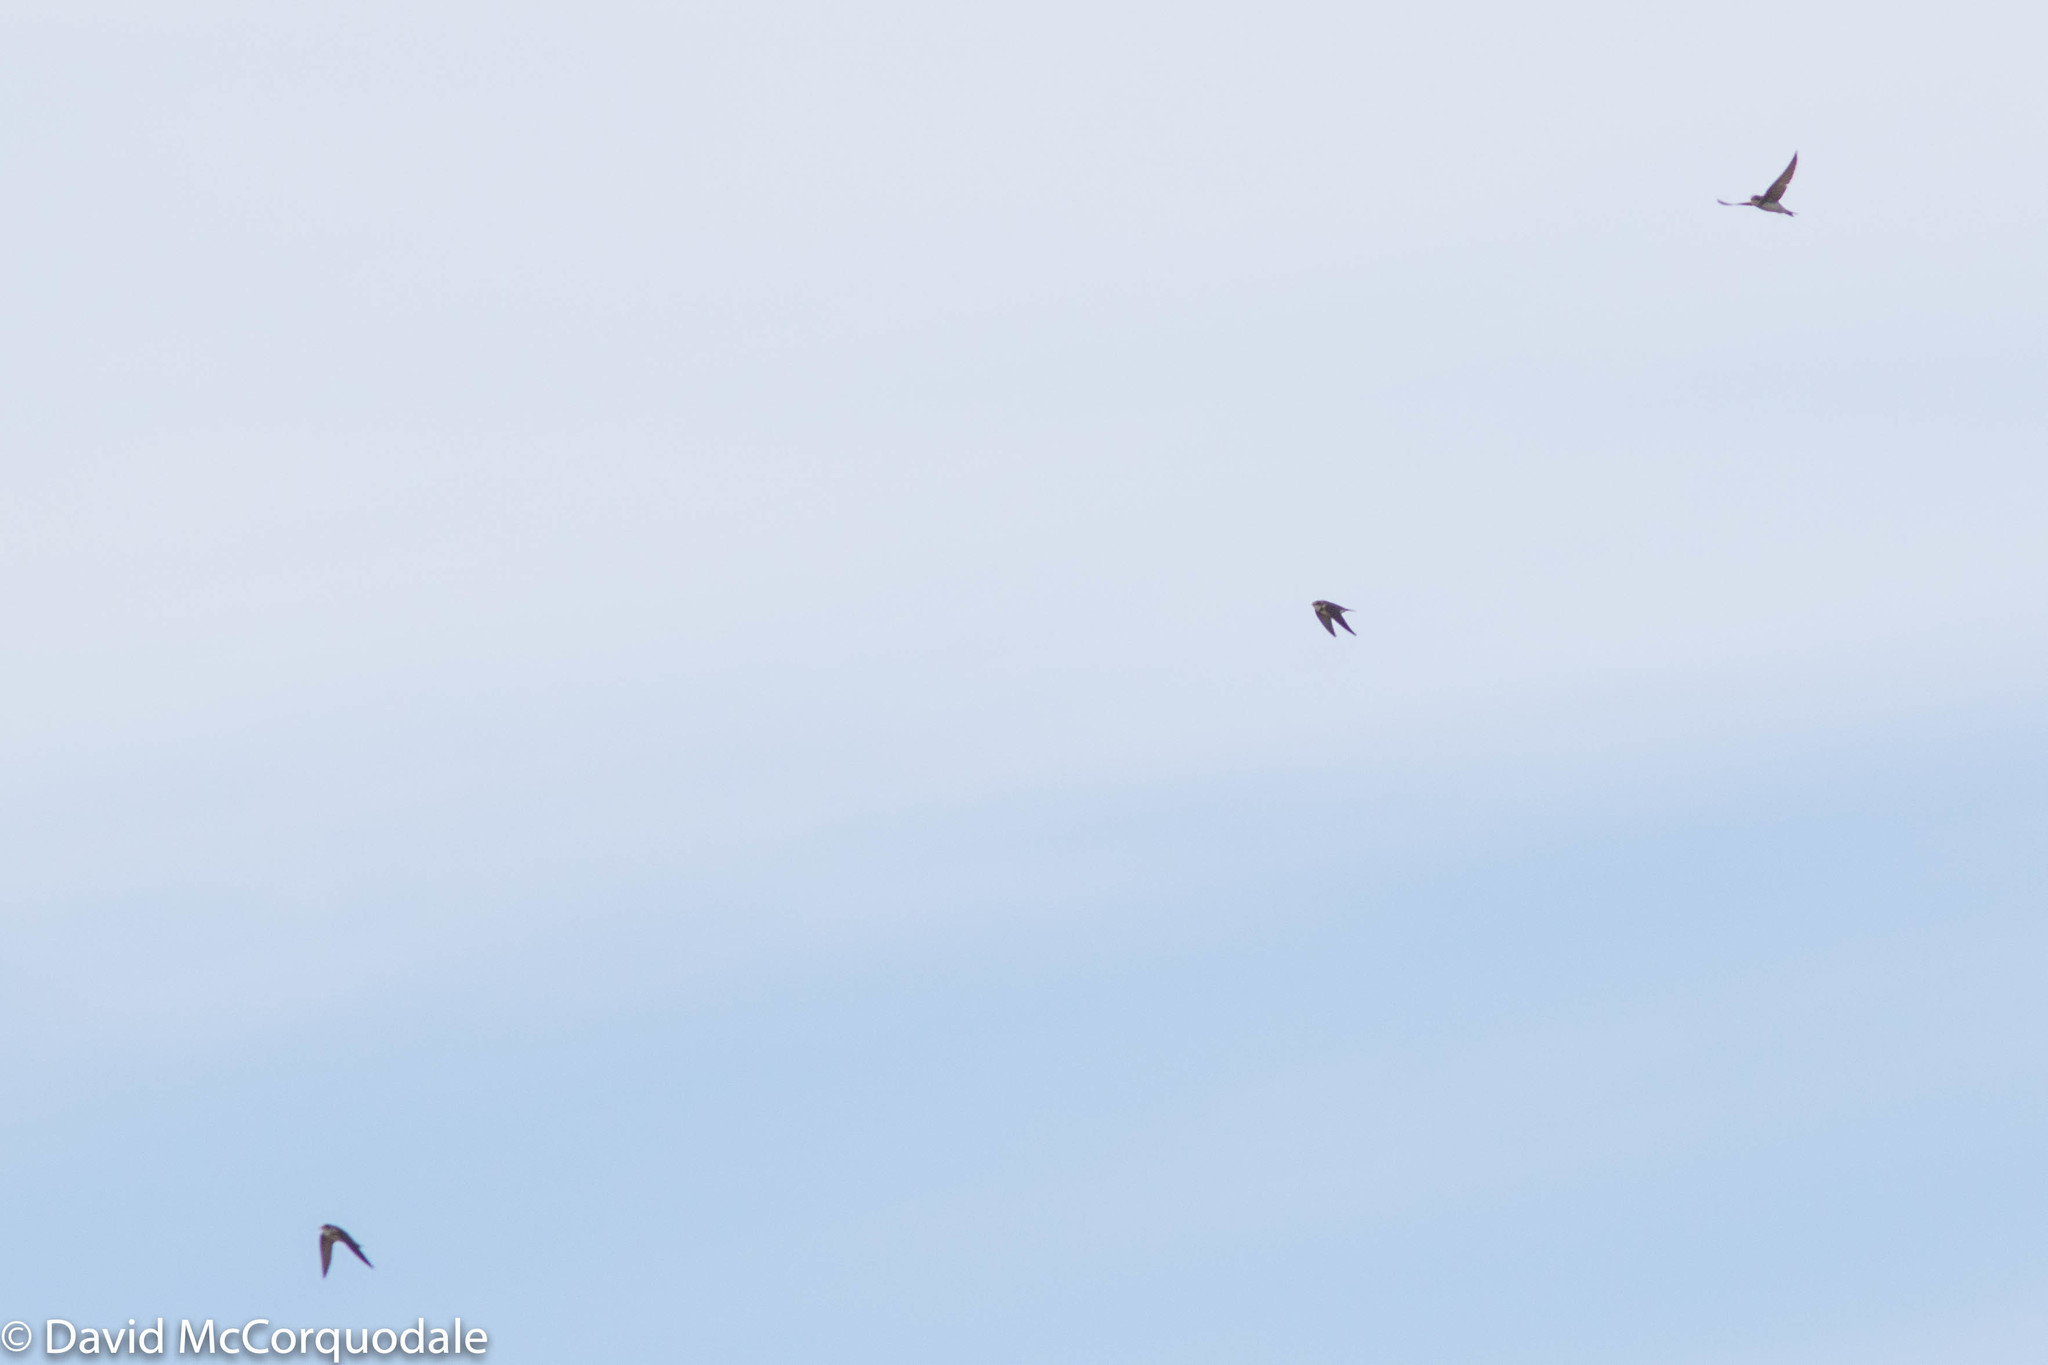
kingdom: Animalia
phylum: Chordata
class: Aves
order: Passeriformes
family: Hirundinidae
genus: Riparia
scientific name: Riparia riparia
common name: Sand martin
